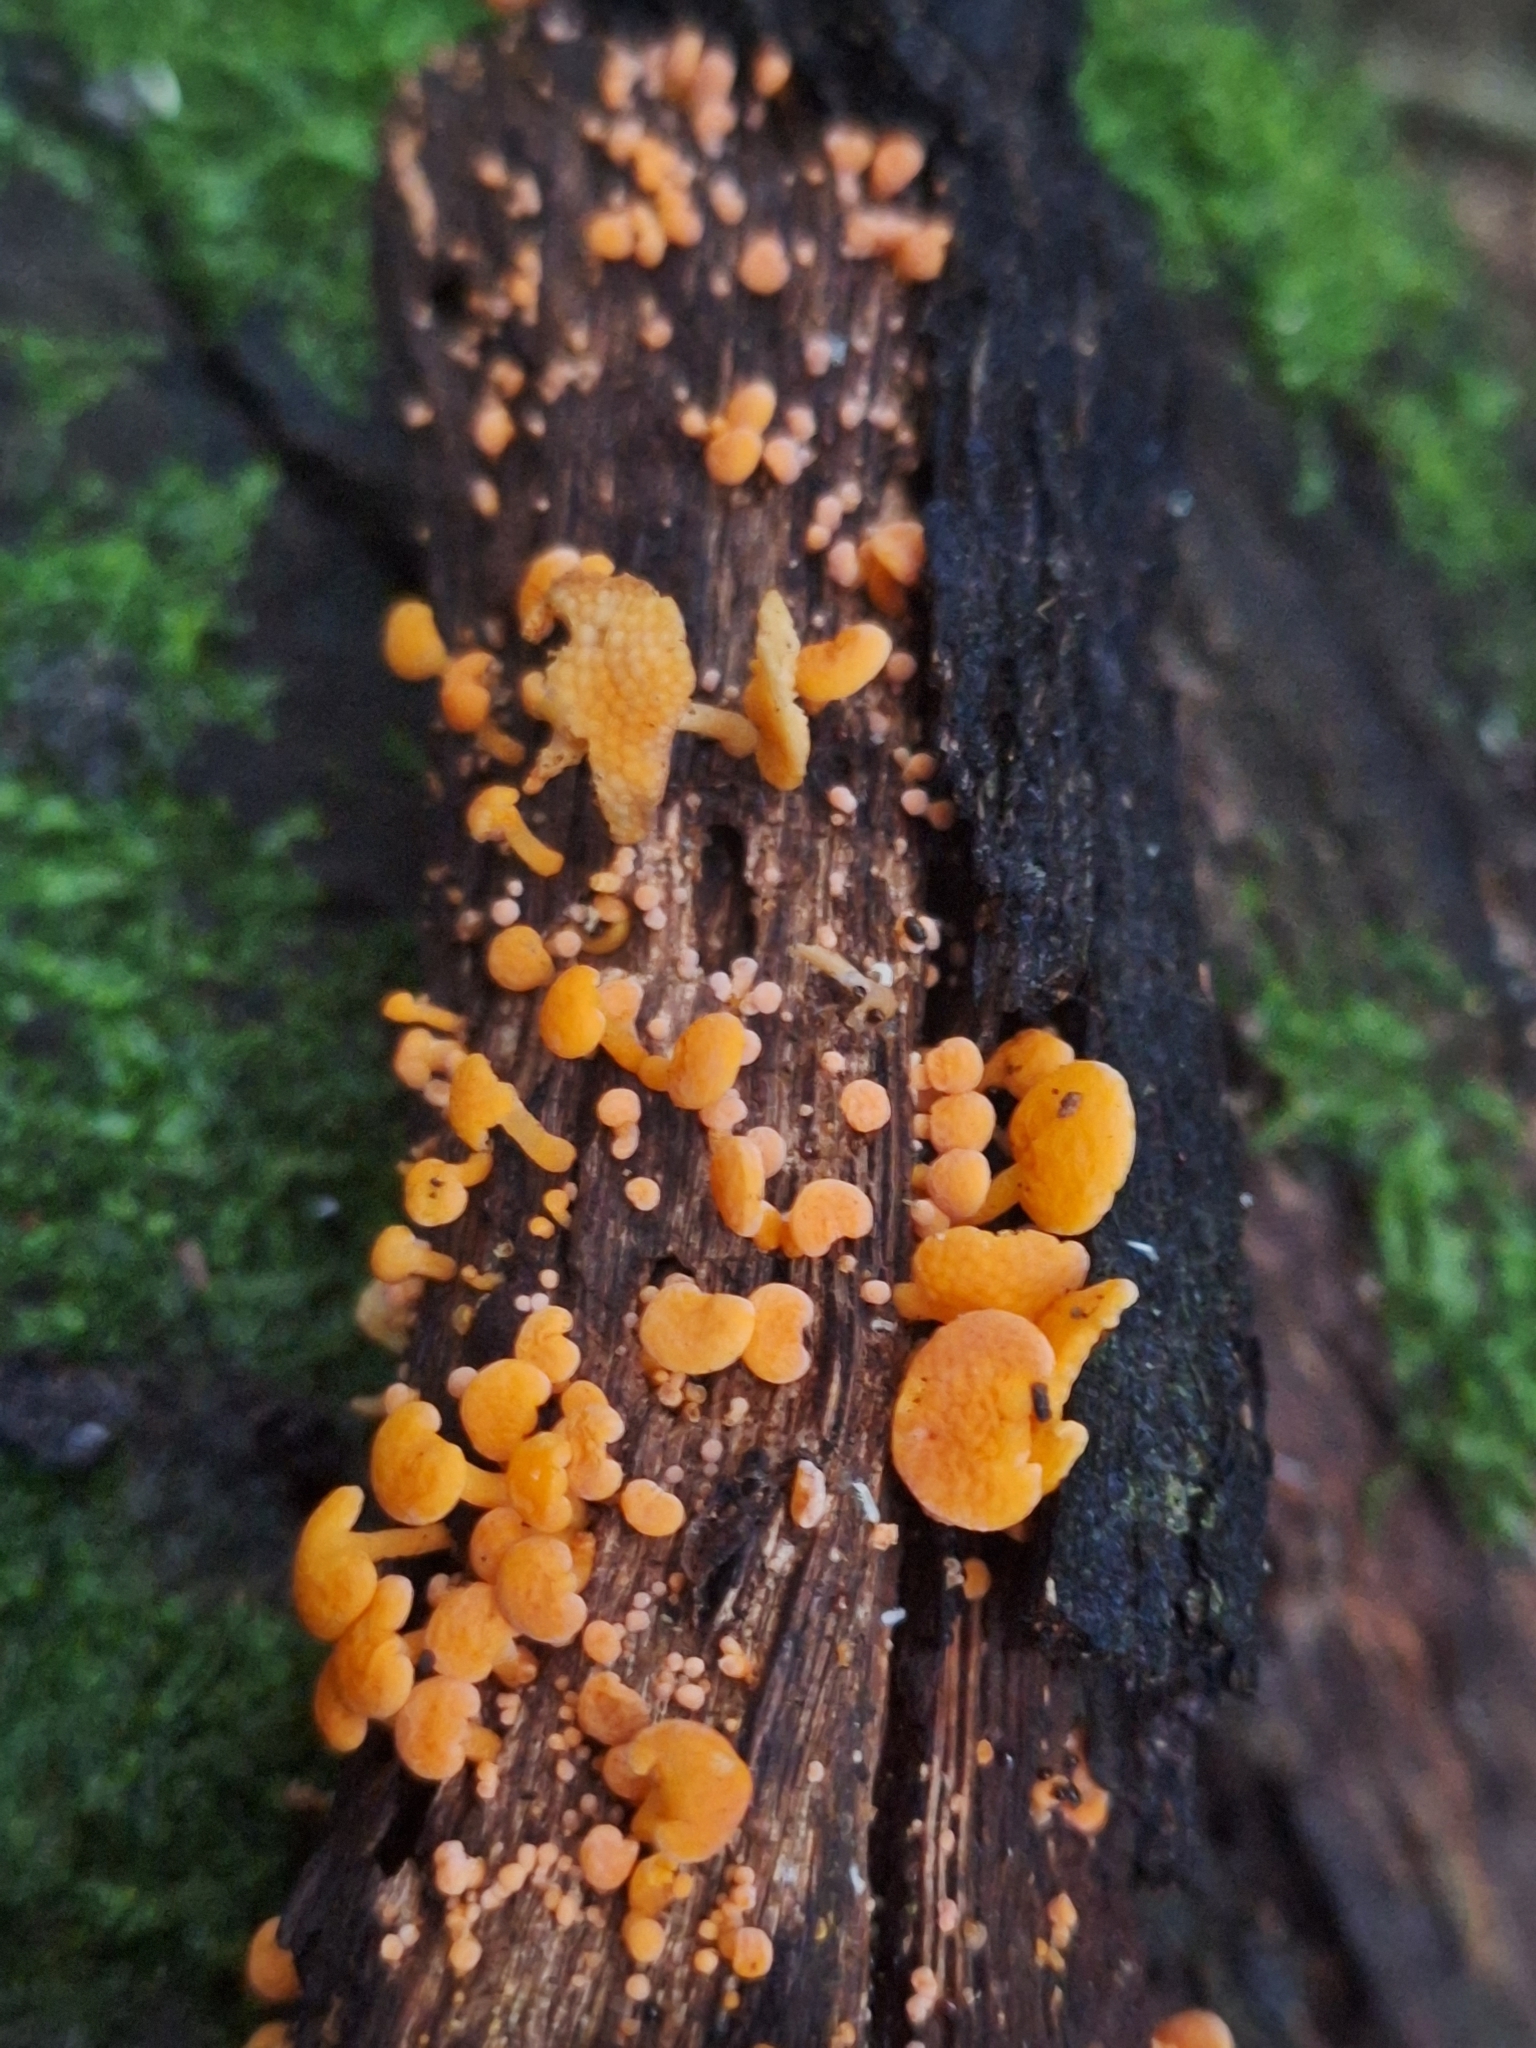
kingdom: Fungi
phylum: Basidiomycota
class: Agaricomycetes
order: Agaricales
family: Mycenaceae
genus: Favolaschia
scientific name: Favolaschia claudopus
